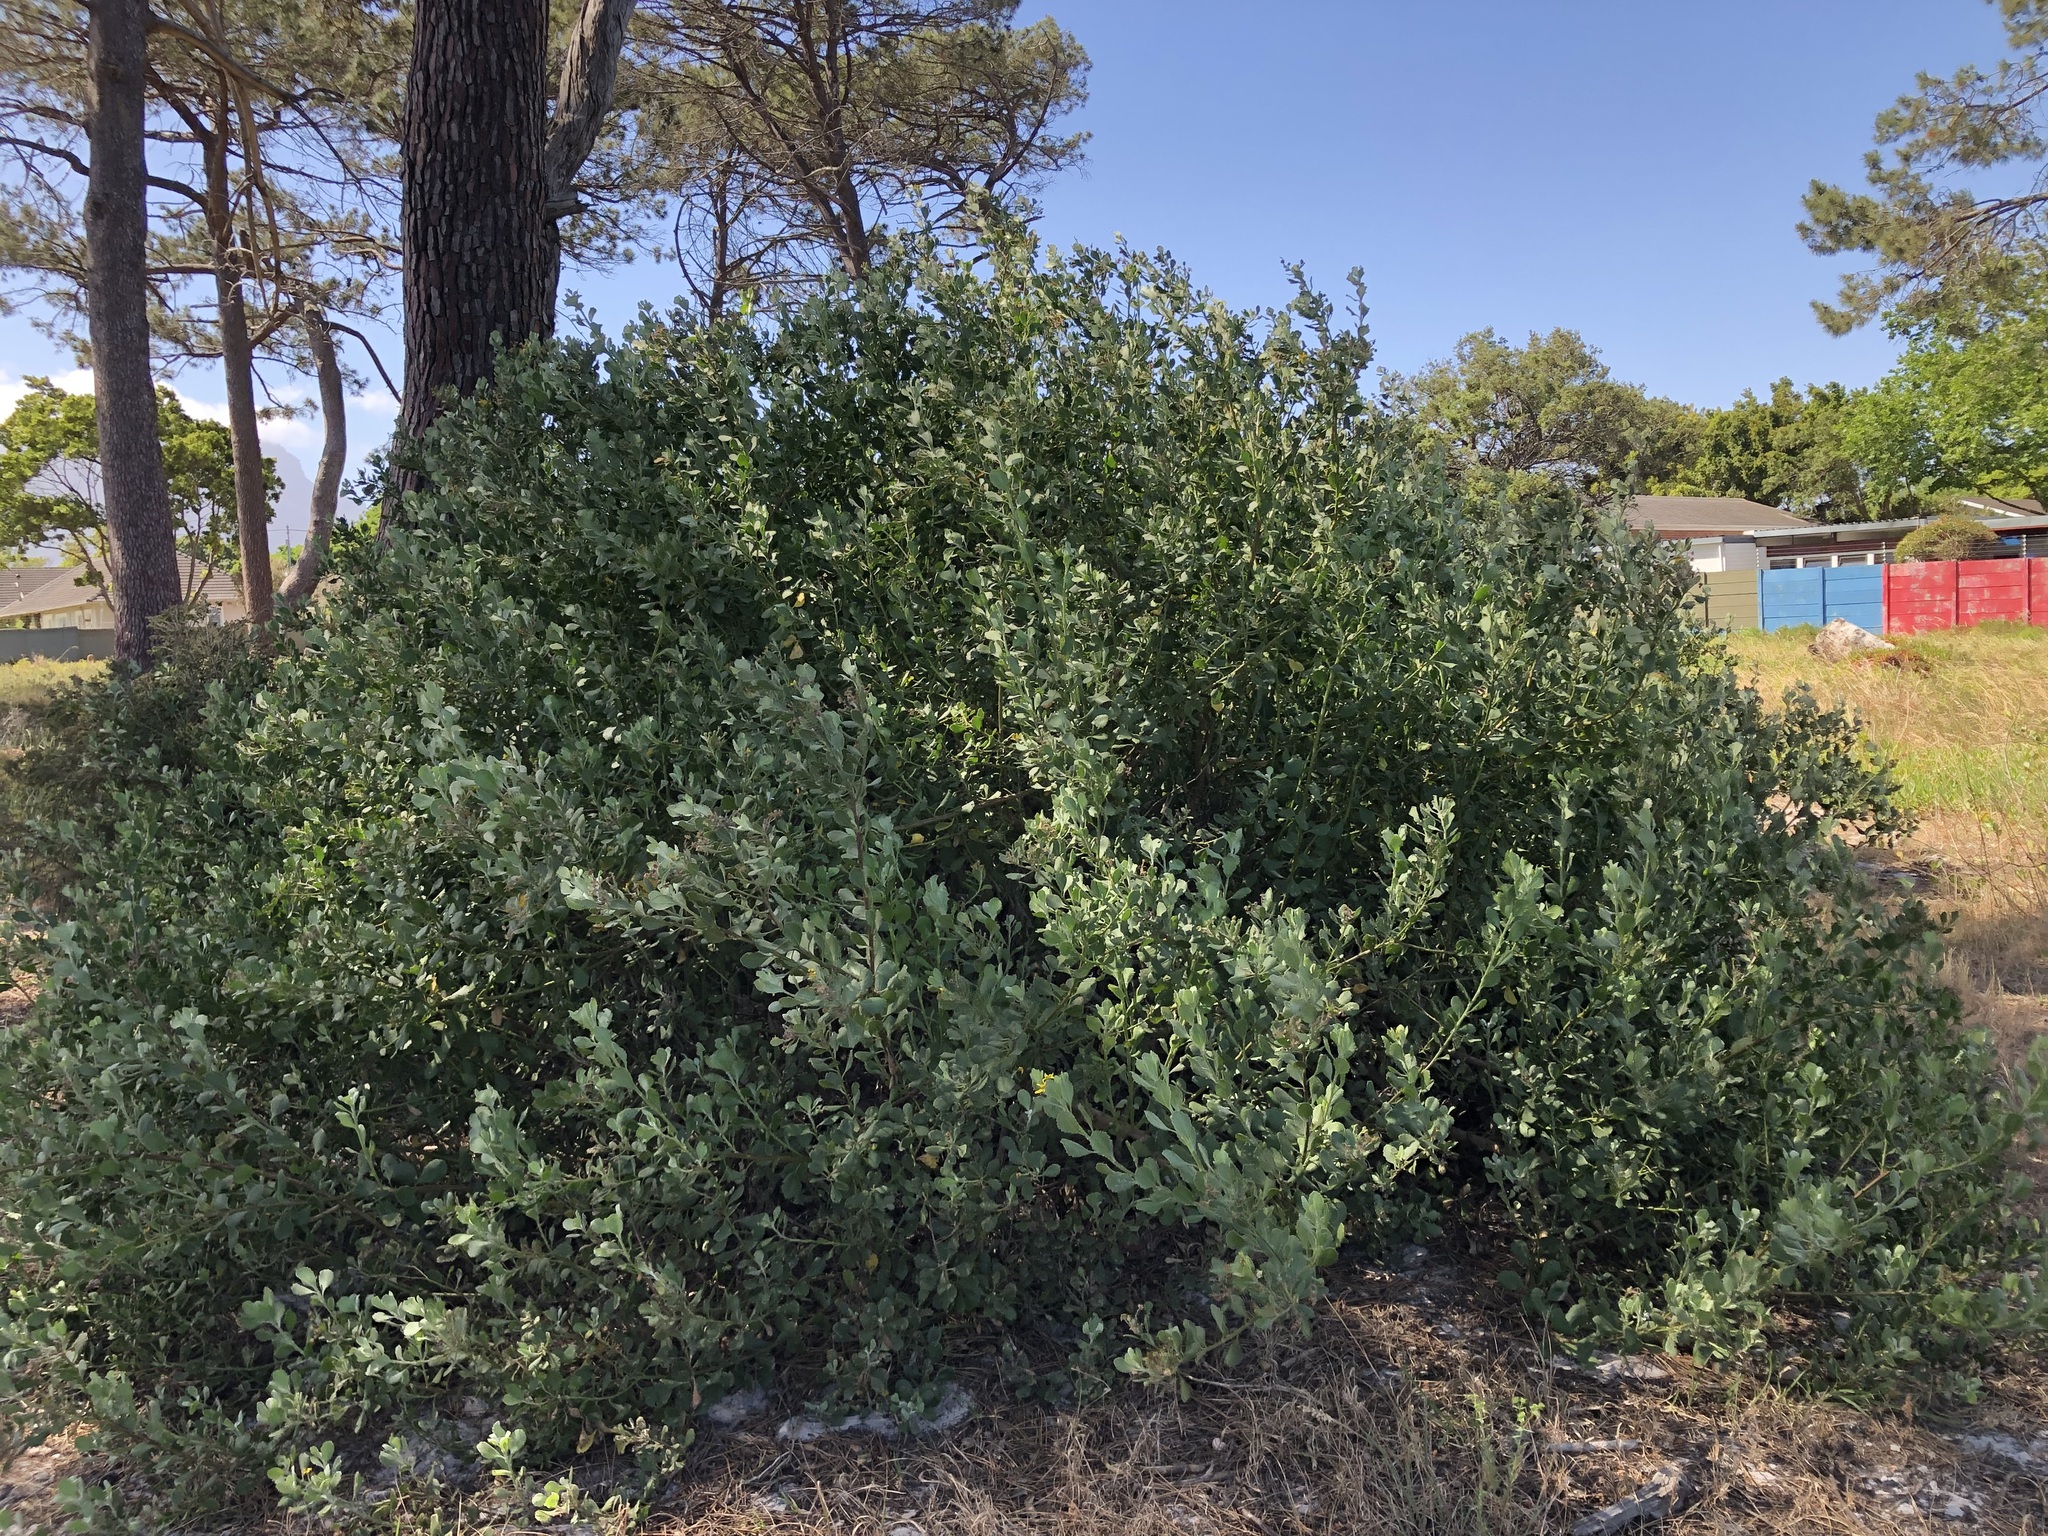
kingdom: Plantae
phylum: Tracheophyta
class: Magnoliopsida
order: Asterales
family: Asteraceae
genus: Osteospermum
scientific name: Osteospermum moniliferum
